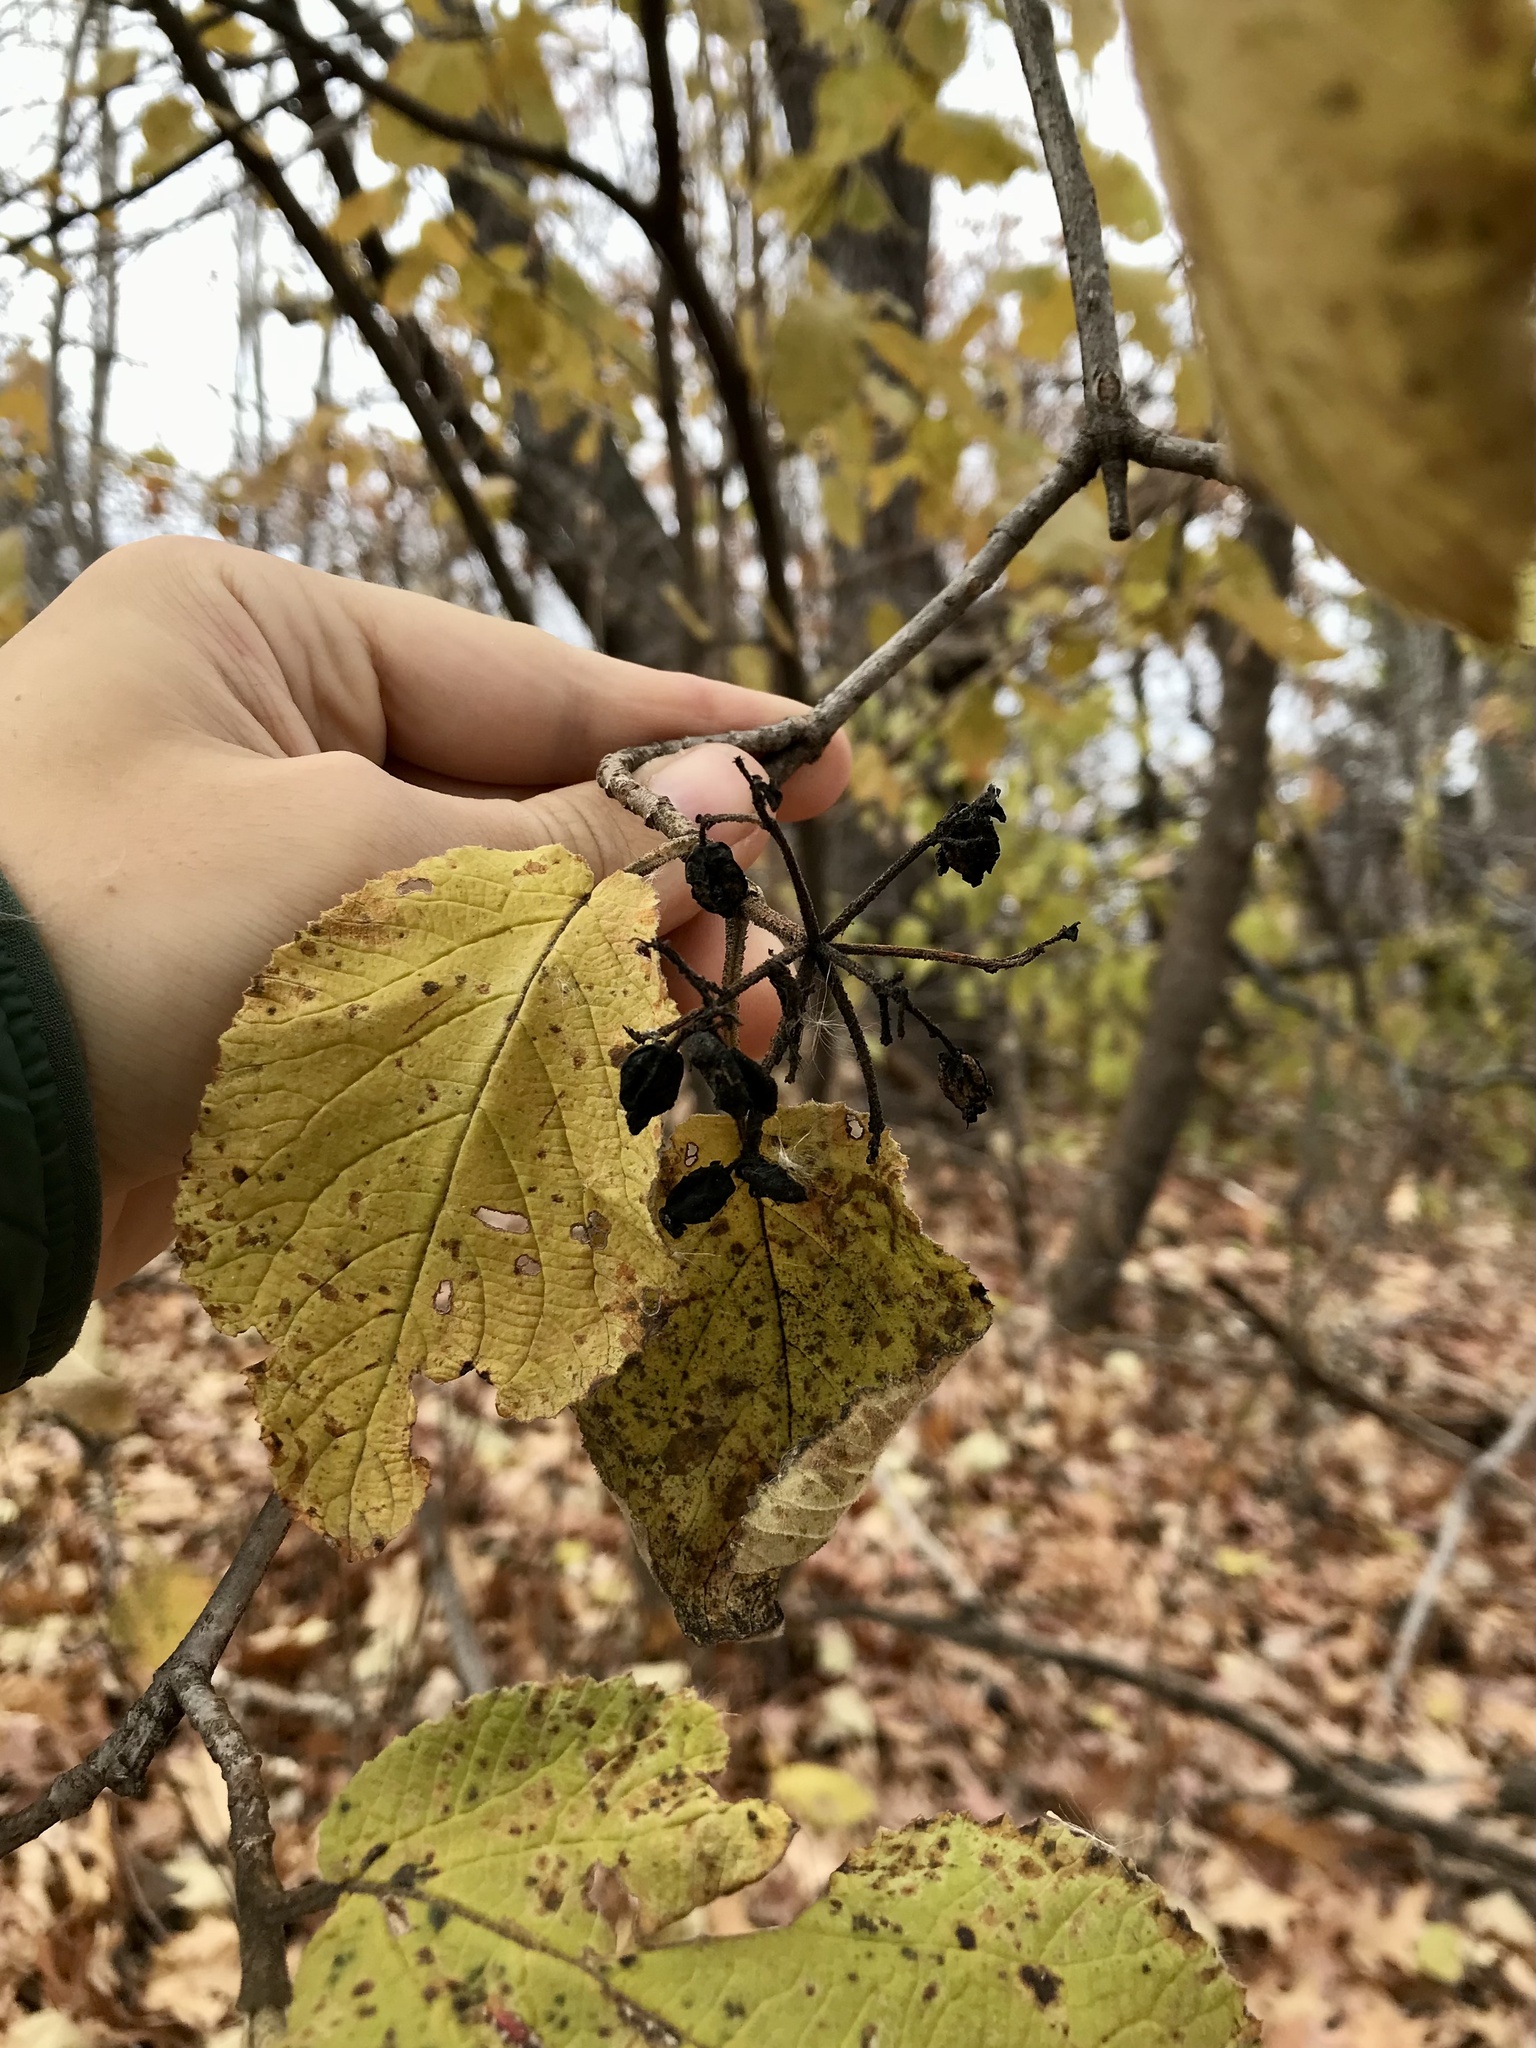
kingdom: Plantae
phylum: Tracheophyta
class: Magnoliopsida
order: Dipsacales
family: Viburnaceae
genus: Viburnum
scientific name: Viburnum lantana
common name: Wayfaring tree
